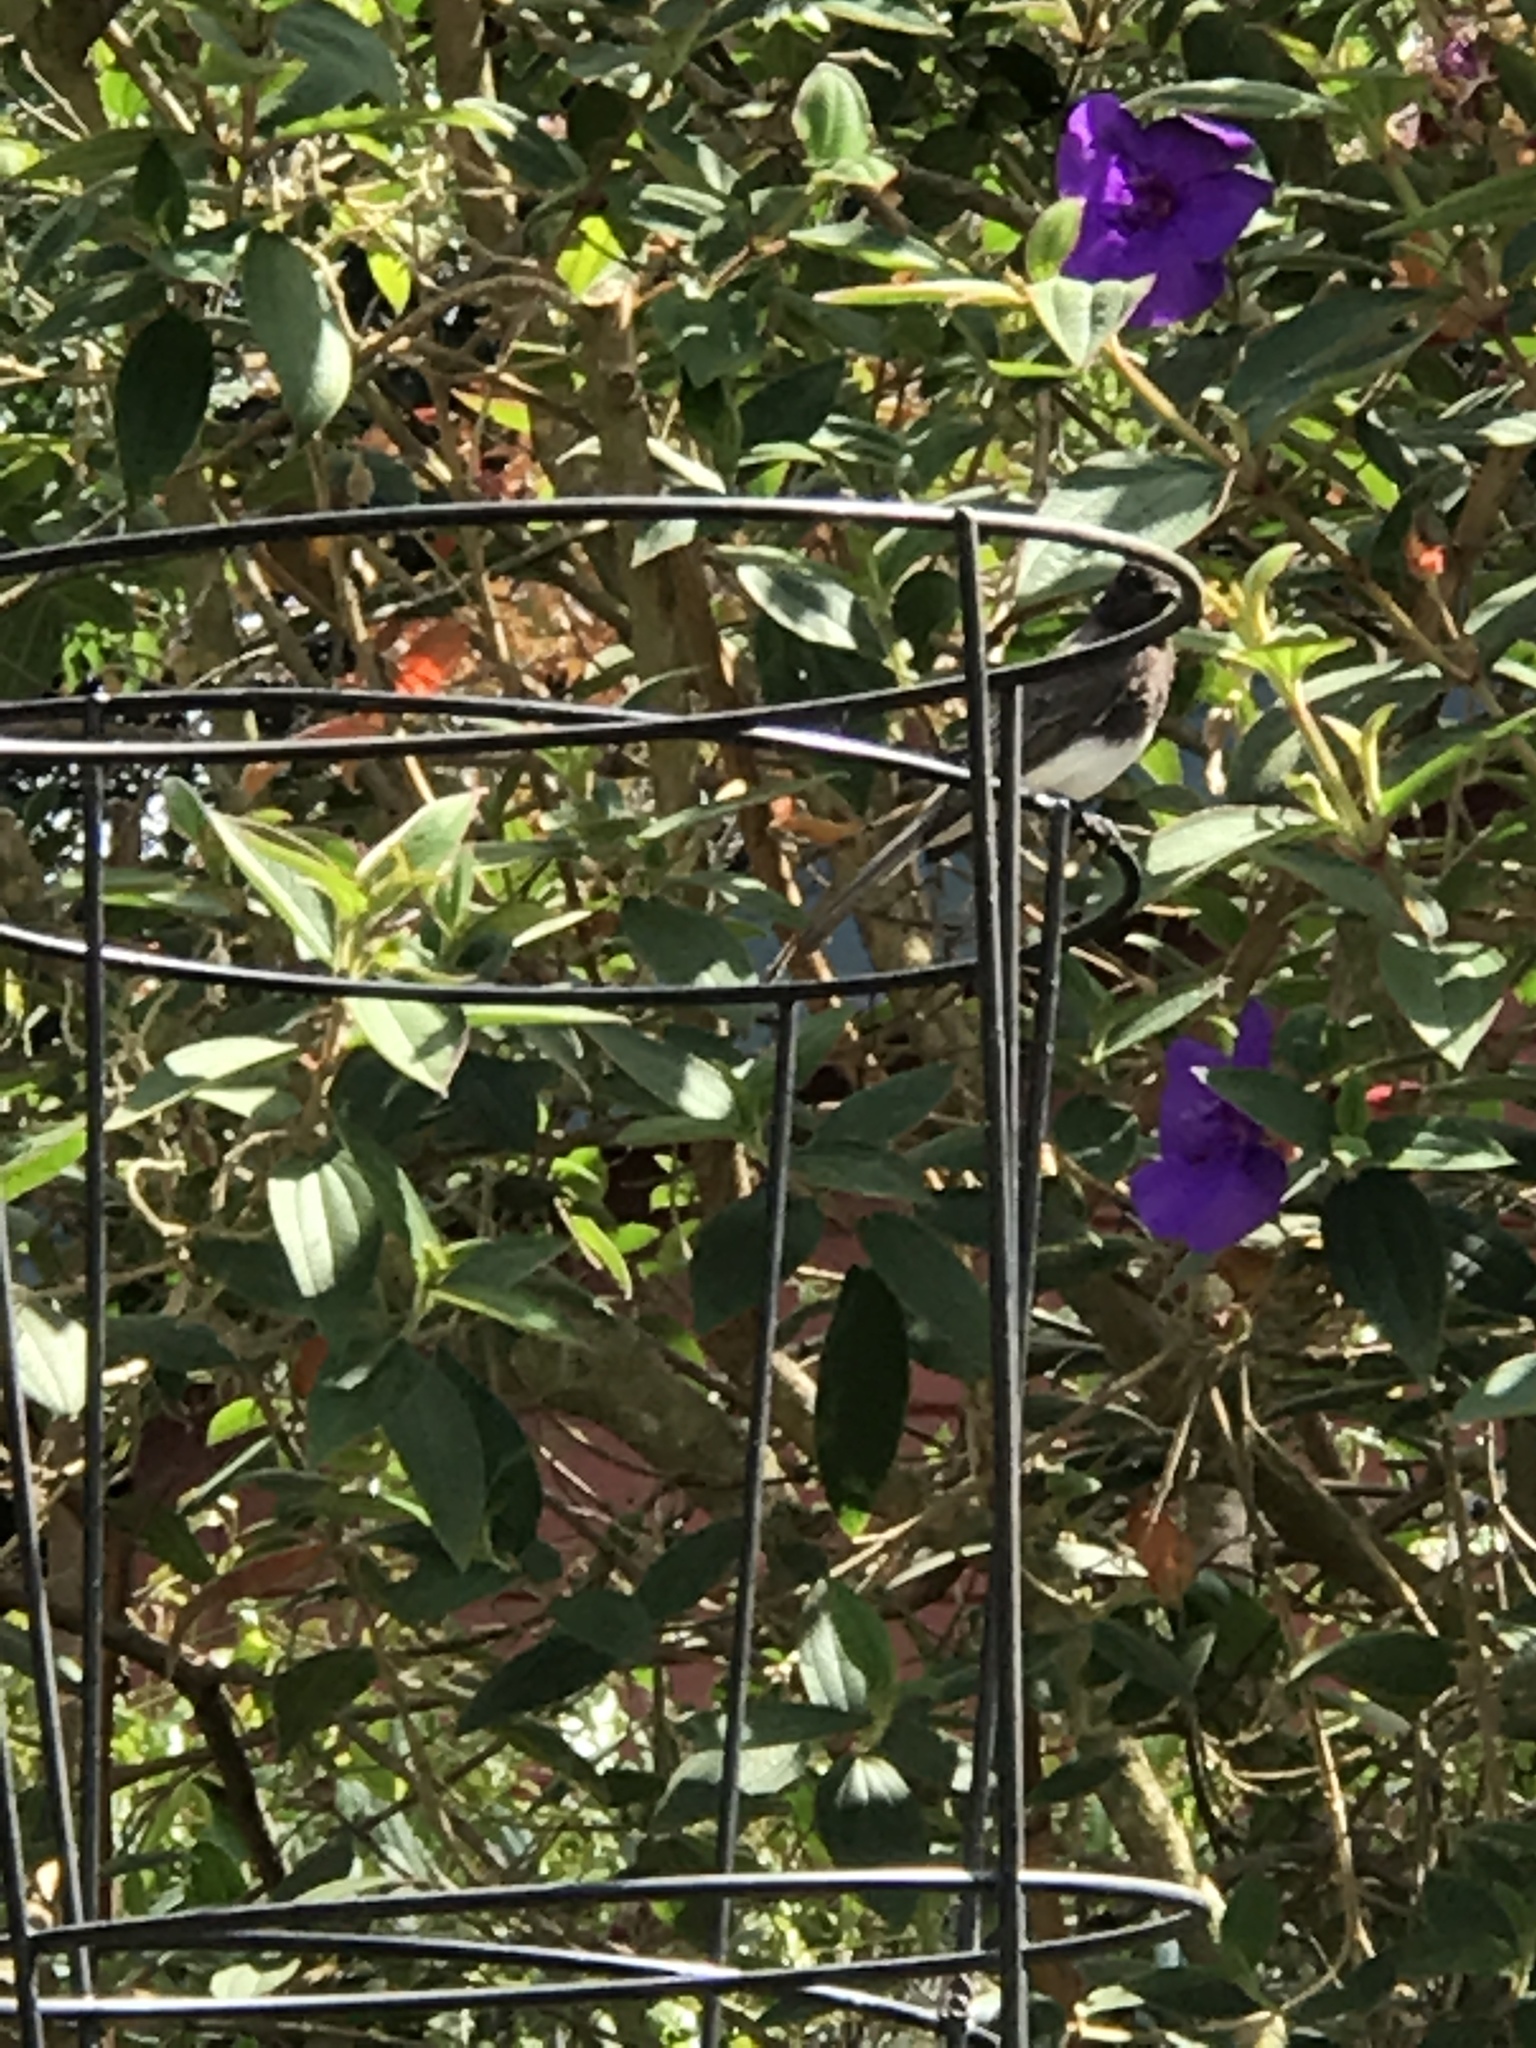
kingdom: Animalia
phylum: Chordata
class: Aves
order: Passeriformes
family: Tyrannidae
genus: Sayornis
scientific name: Sayornis nigricans
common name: Black phoebe
